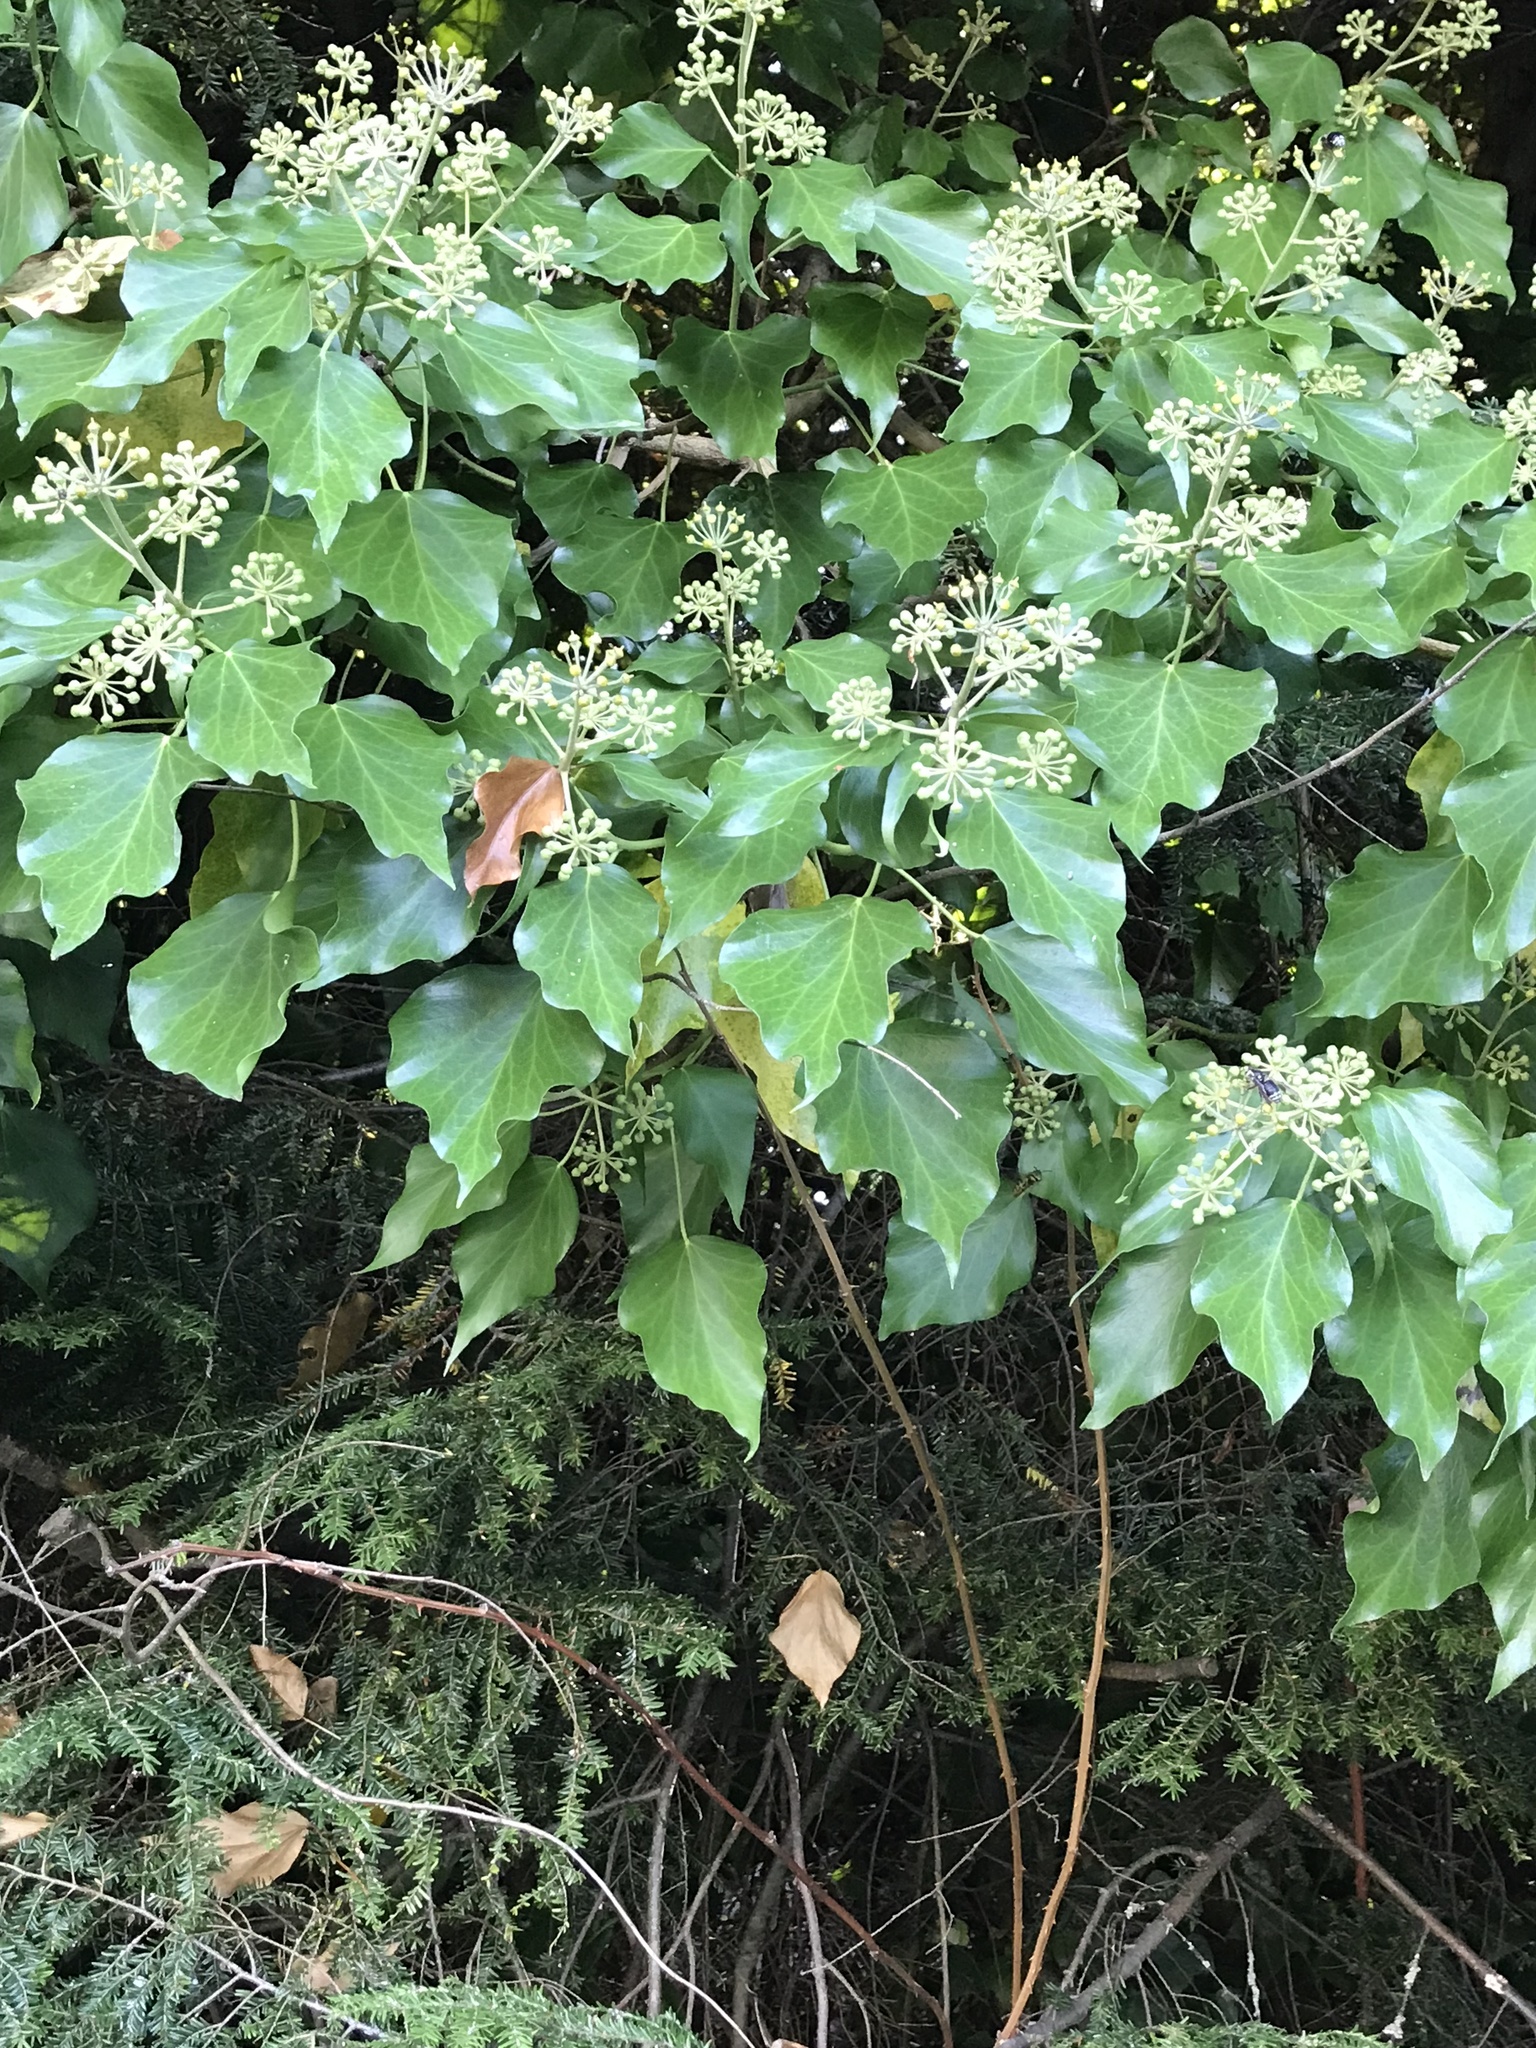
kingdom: Plantae
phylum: Tracheophyta
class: Magnoliopsida
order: Apiales
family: Araliaceae
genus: Hedera
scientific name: Hedera helix
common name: Ivy
